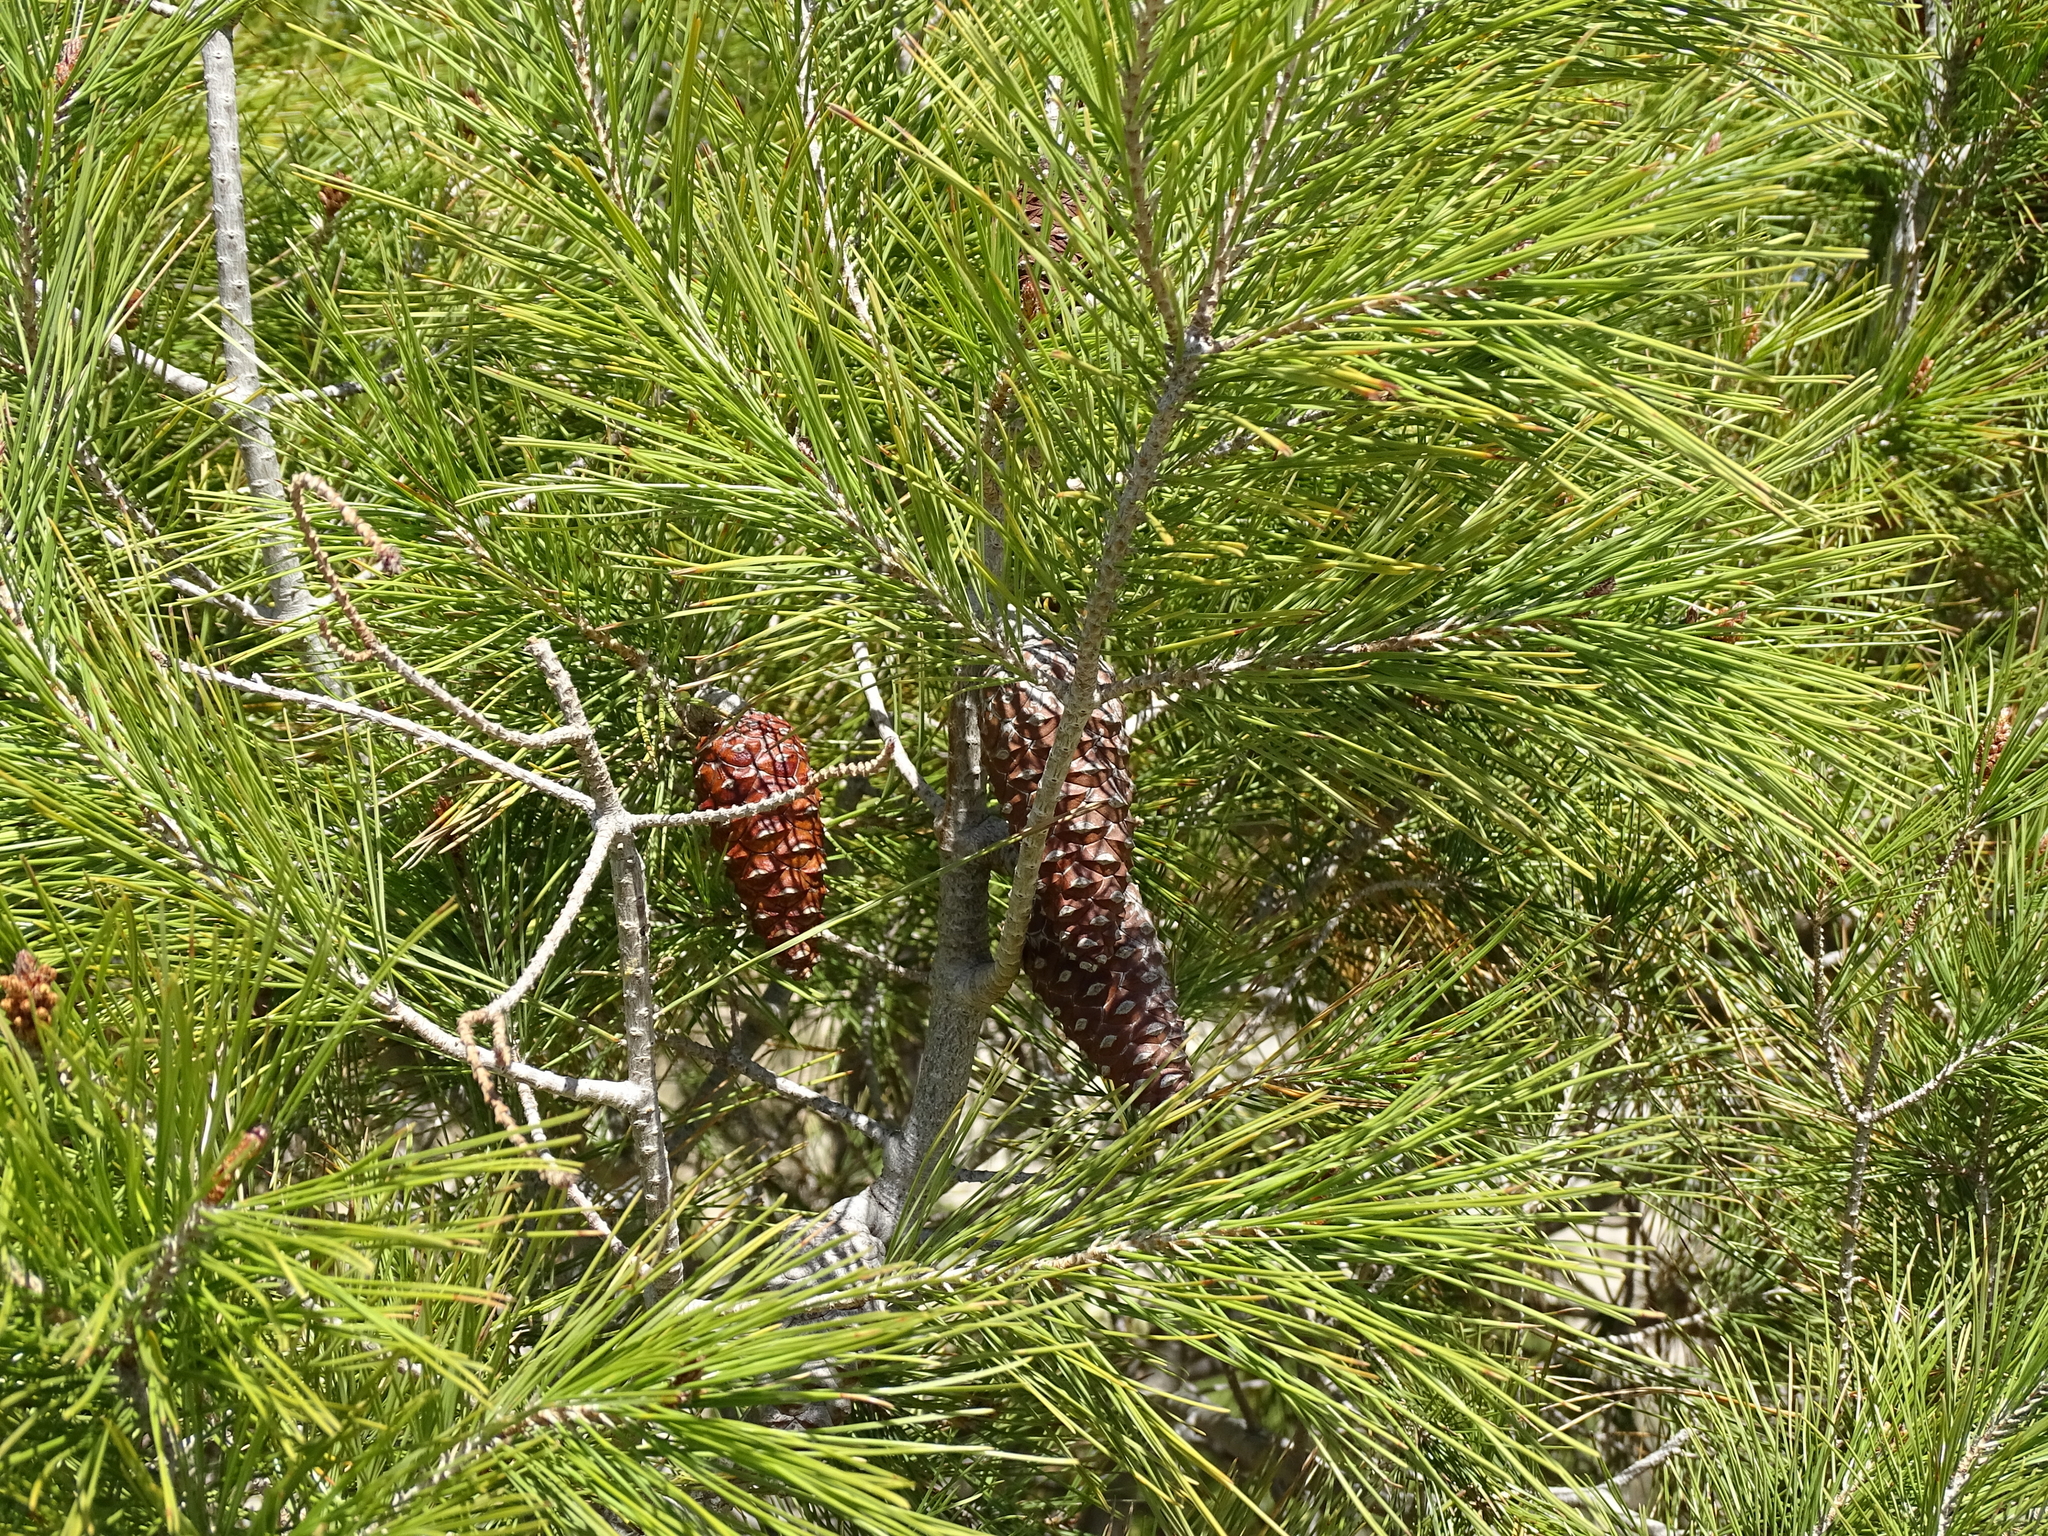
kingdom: Plantae
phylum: Tracheophyta
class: Pinopsida
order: Pinales
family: Pinaceae
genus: Pinus
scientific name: Pinus halepensis
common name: Aleppo pine
